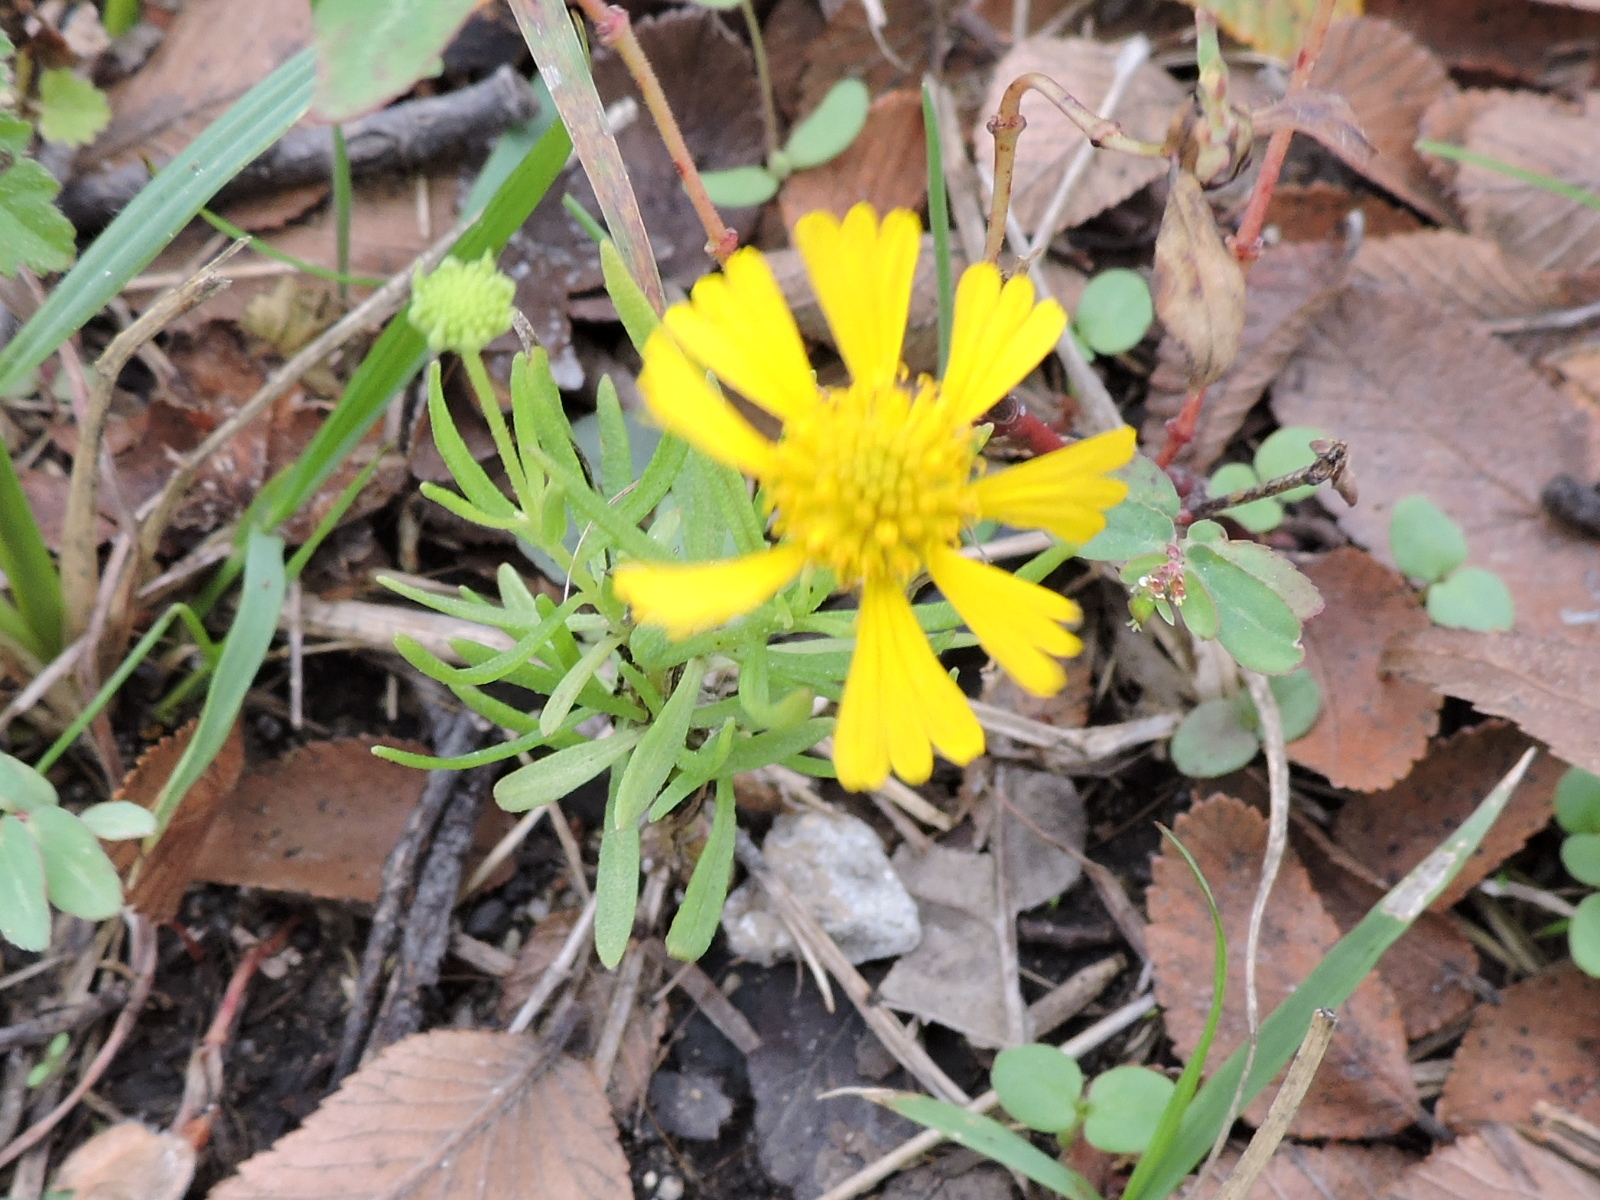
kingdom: Plantae
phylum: Tracheophyta
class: Magnoliopsida
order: Asterales
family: Asteraceae
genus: Helenium
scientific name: Helenium amarum
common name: Bitter sneezeweed
